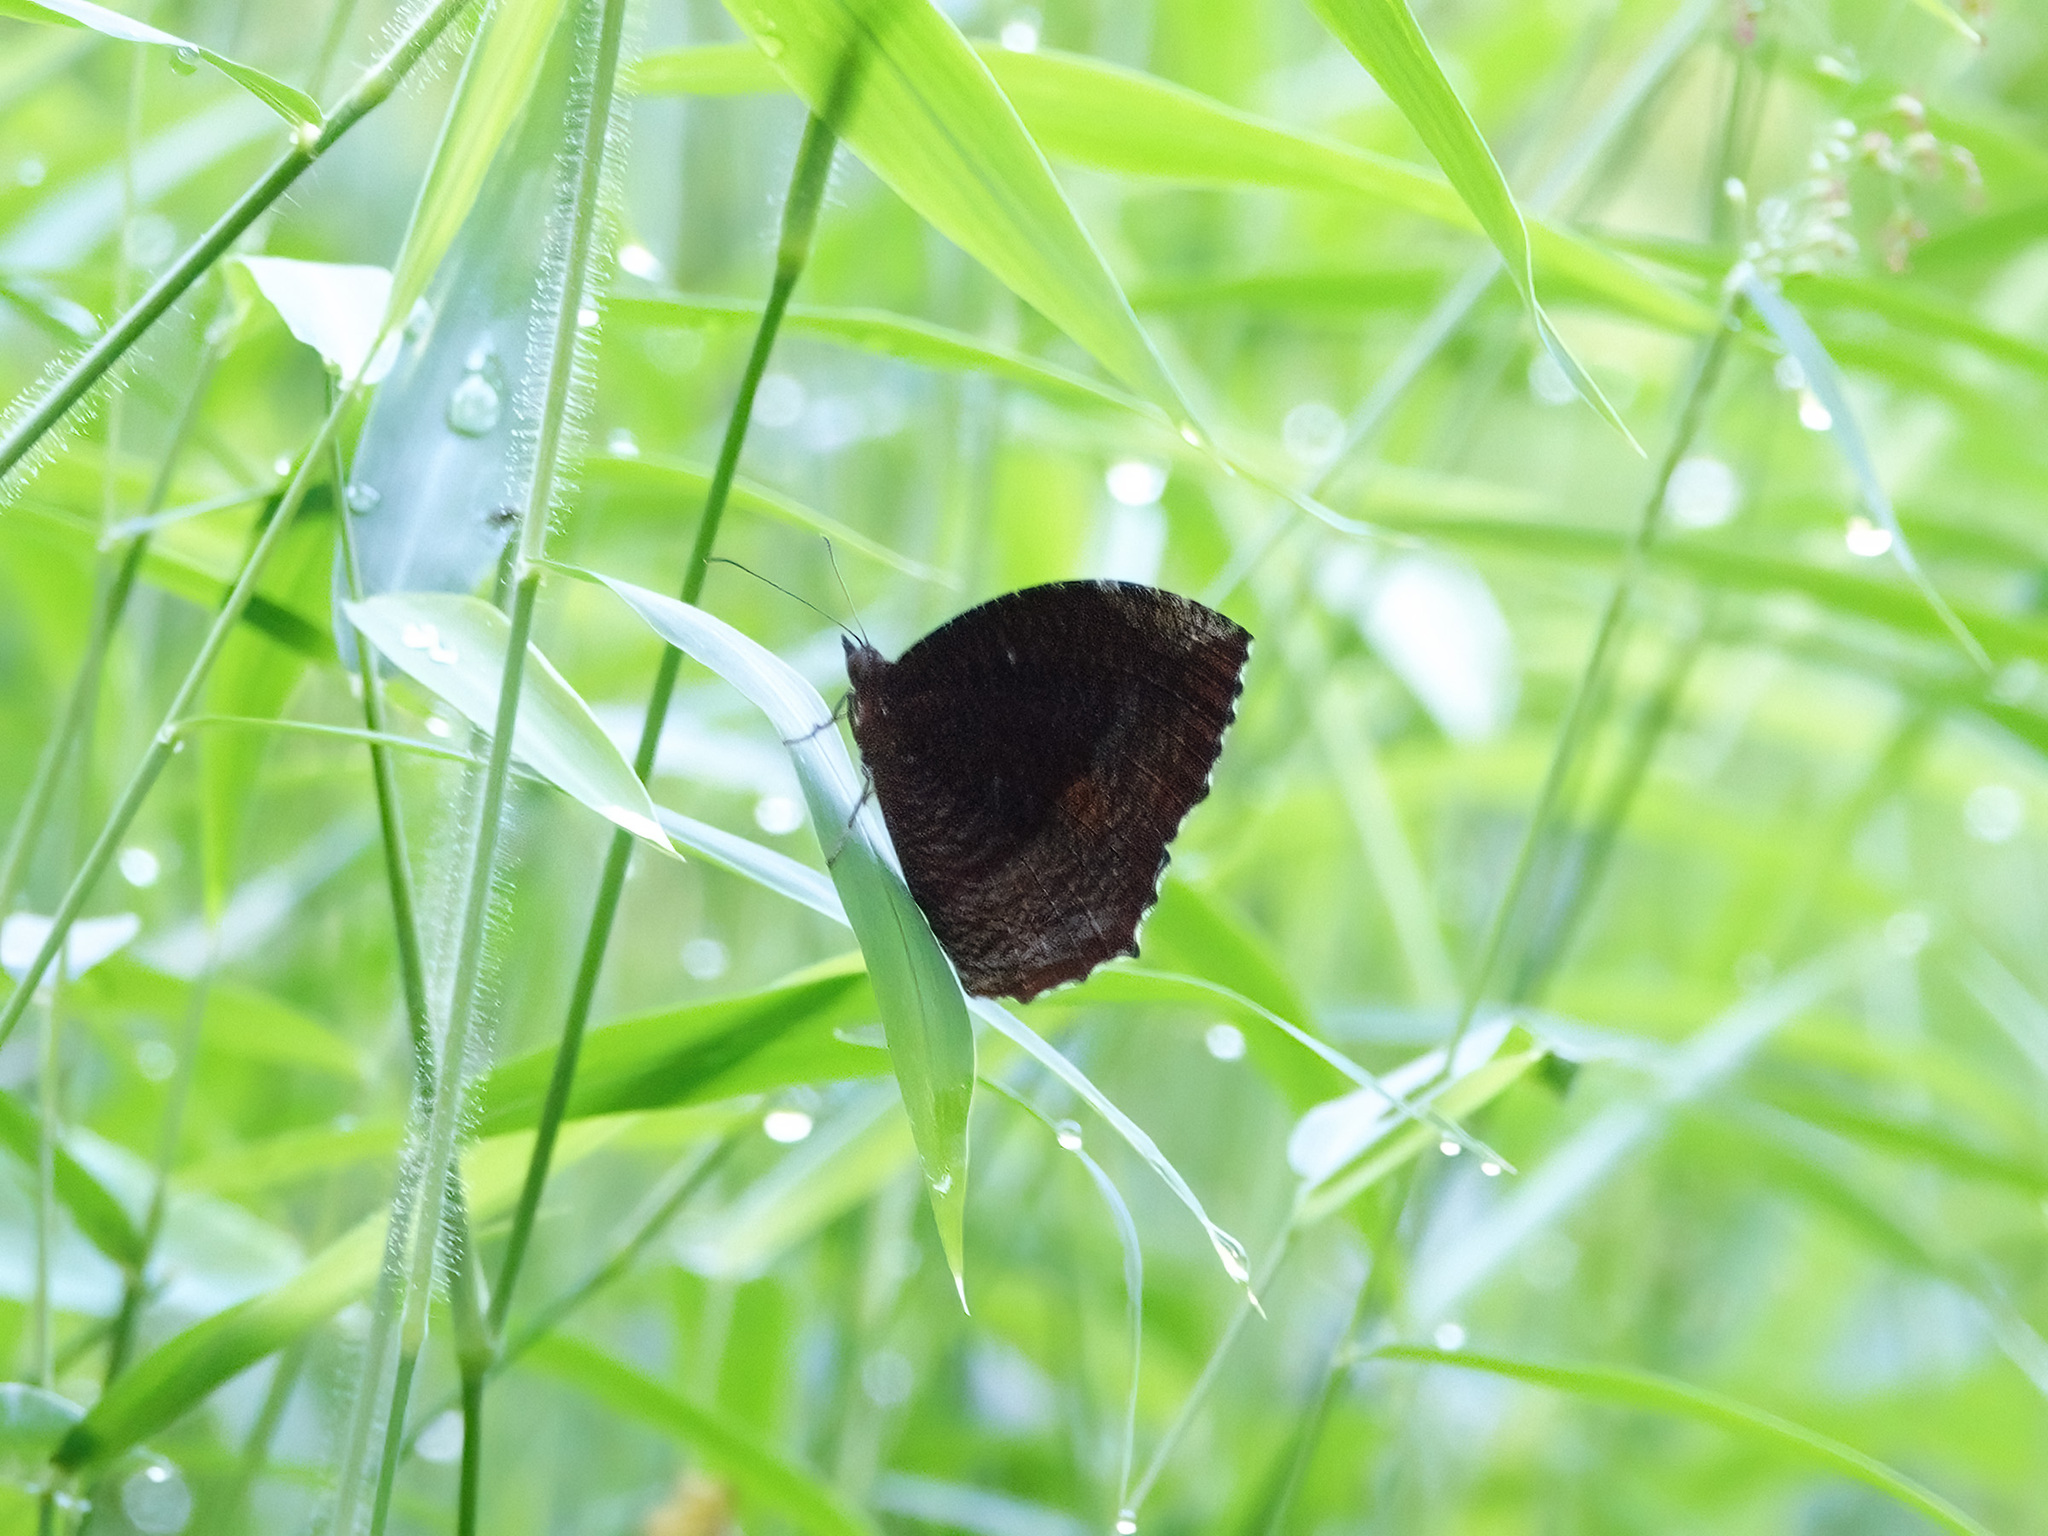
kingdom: Animalia
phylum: Arthropoda
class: Insecta
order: Lepidoptera
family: Nymphalidae
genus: Elymnias
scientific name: Elymnias hypermnestra
